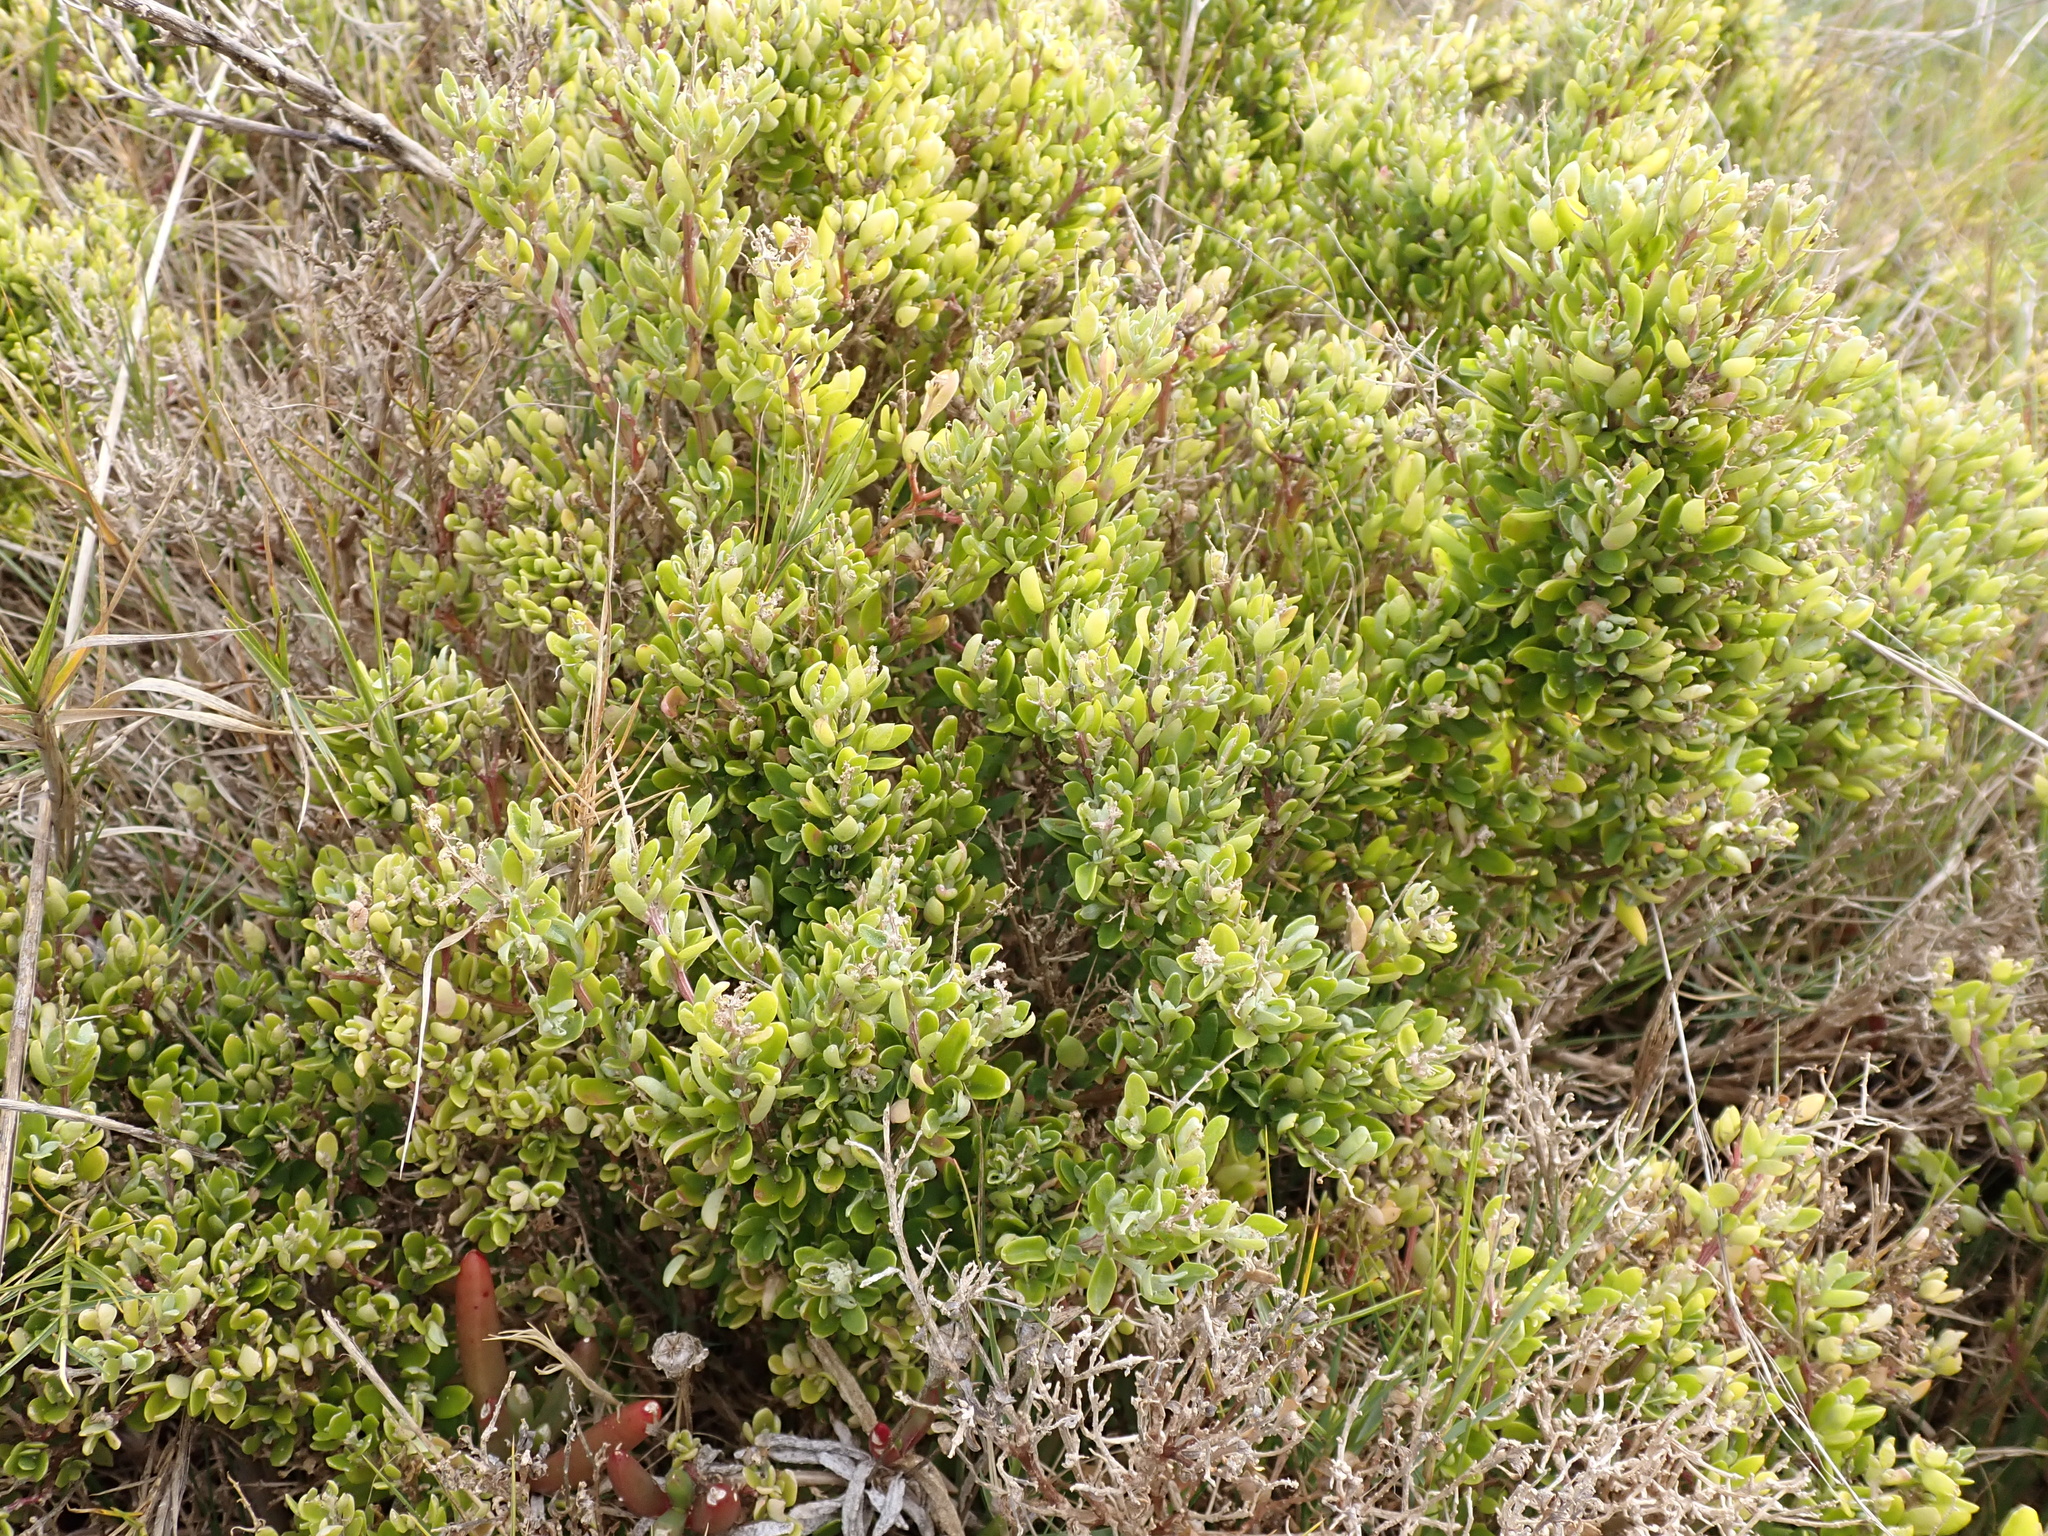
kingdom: Plantae
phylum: Tracheophyta
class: Magnoliopsida
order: Caryophyllales
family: Amaranthaceae
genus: Chenopodium
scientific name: Chenopodium candolleanum
